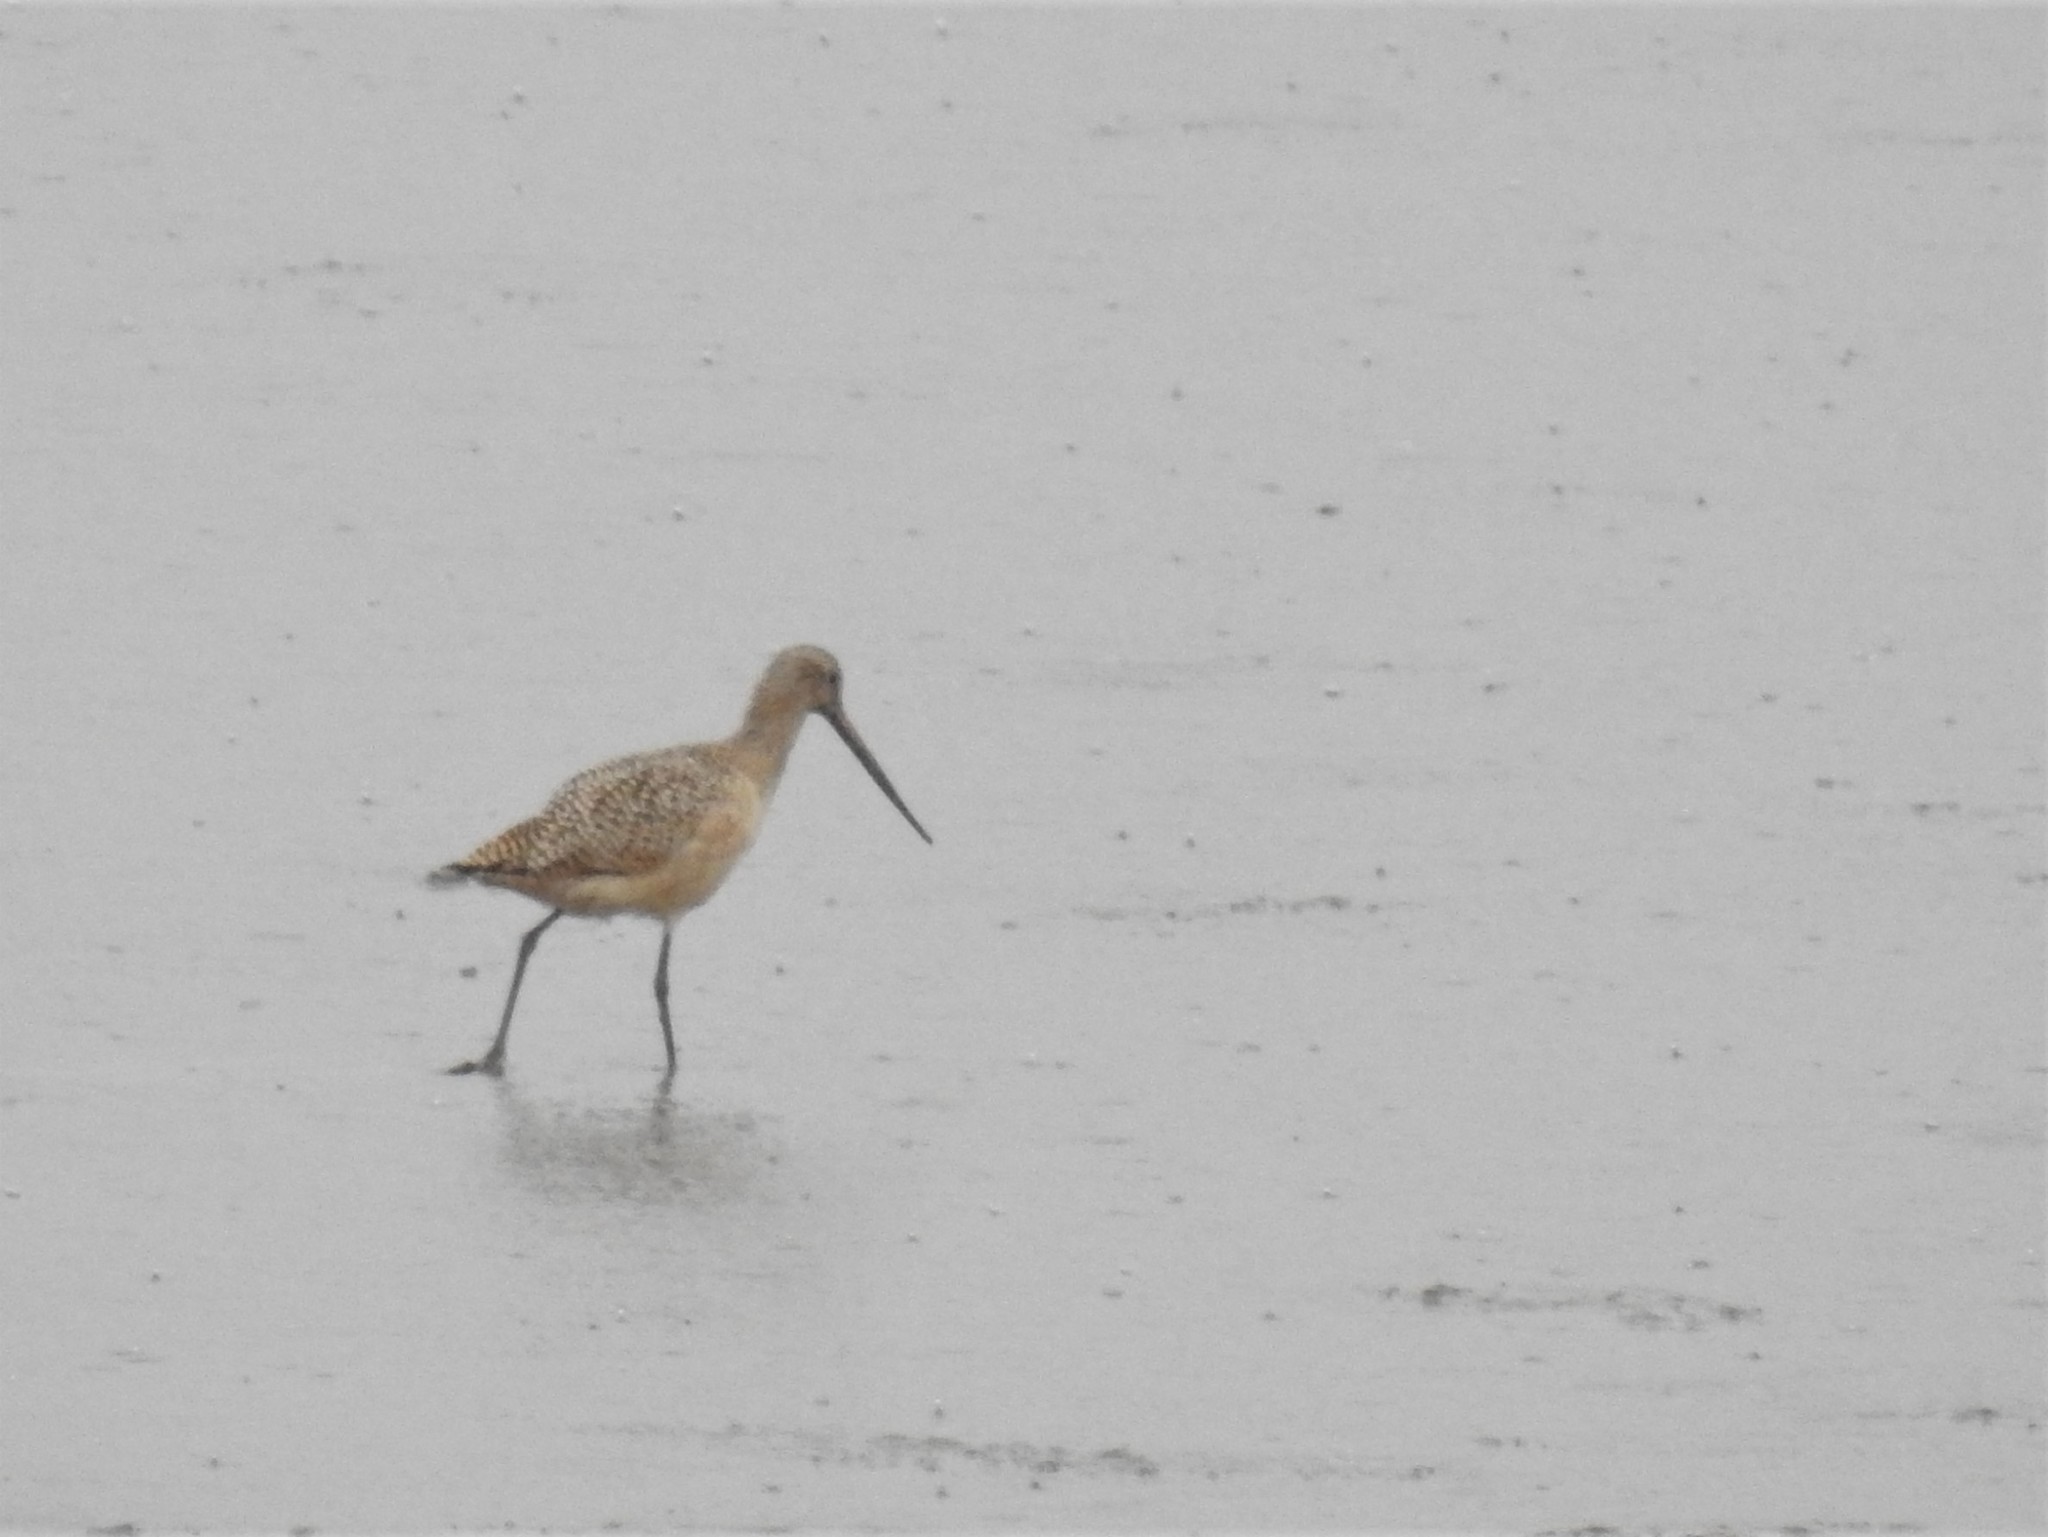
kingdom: Animalia
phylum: Chordata
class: Aves
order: Charadriiformes
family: Scolopacidae
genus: Limosa
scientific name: Limosa fedoa
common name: Marbled godwit
